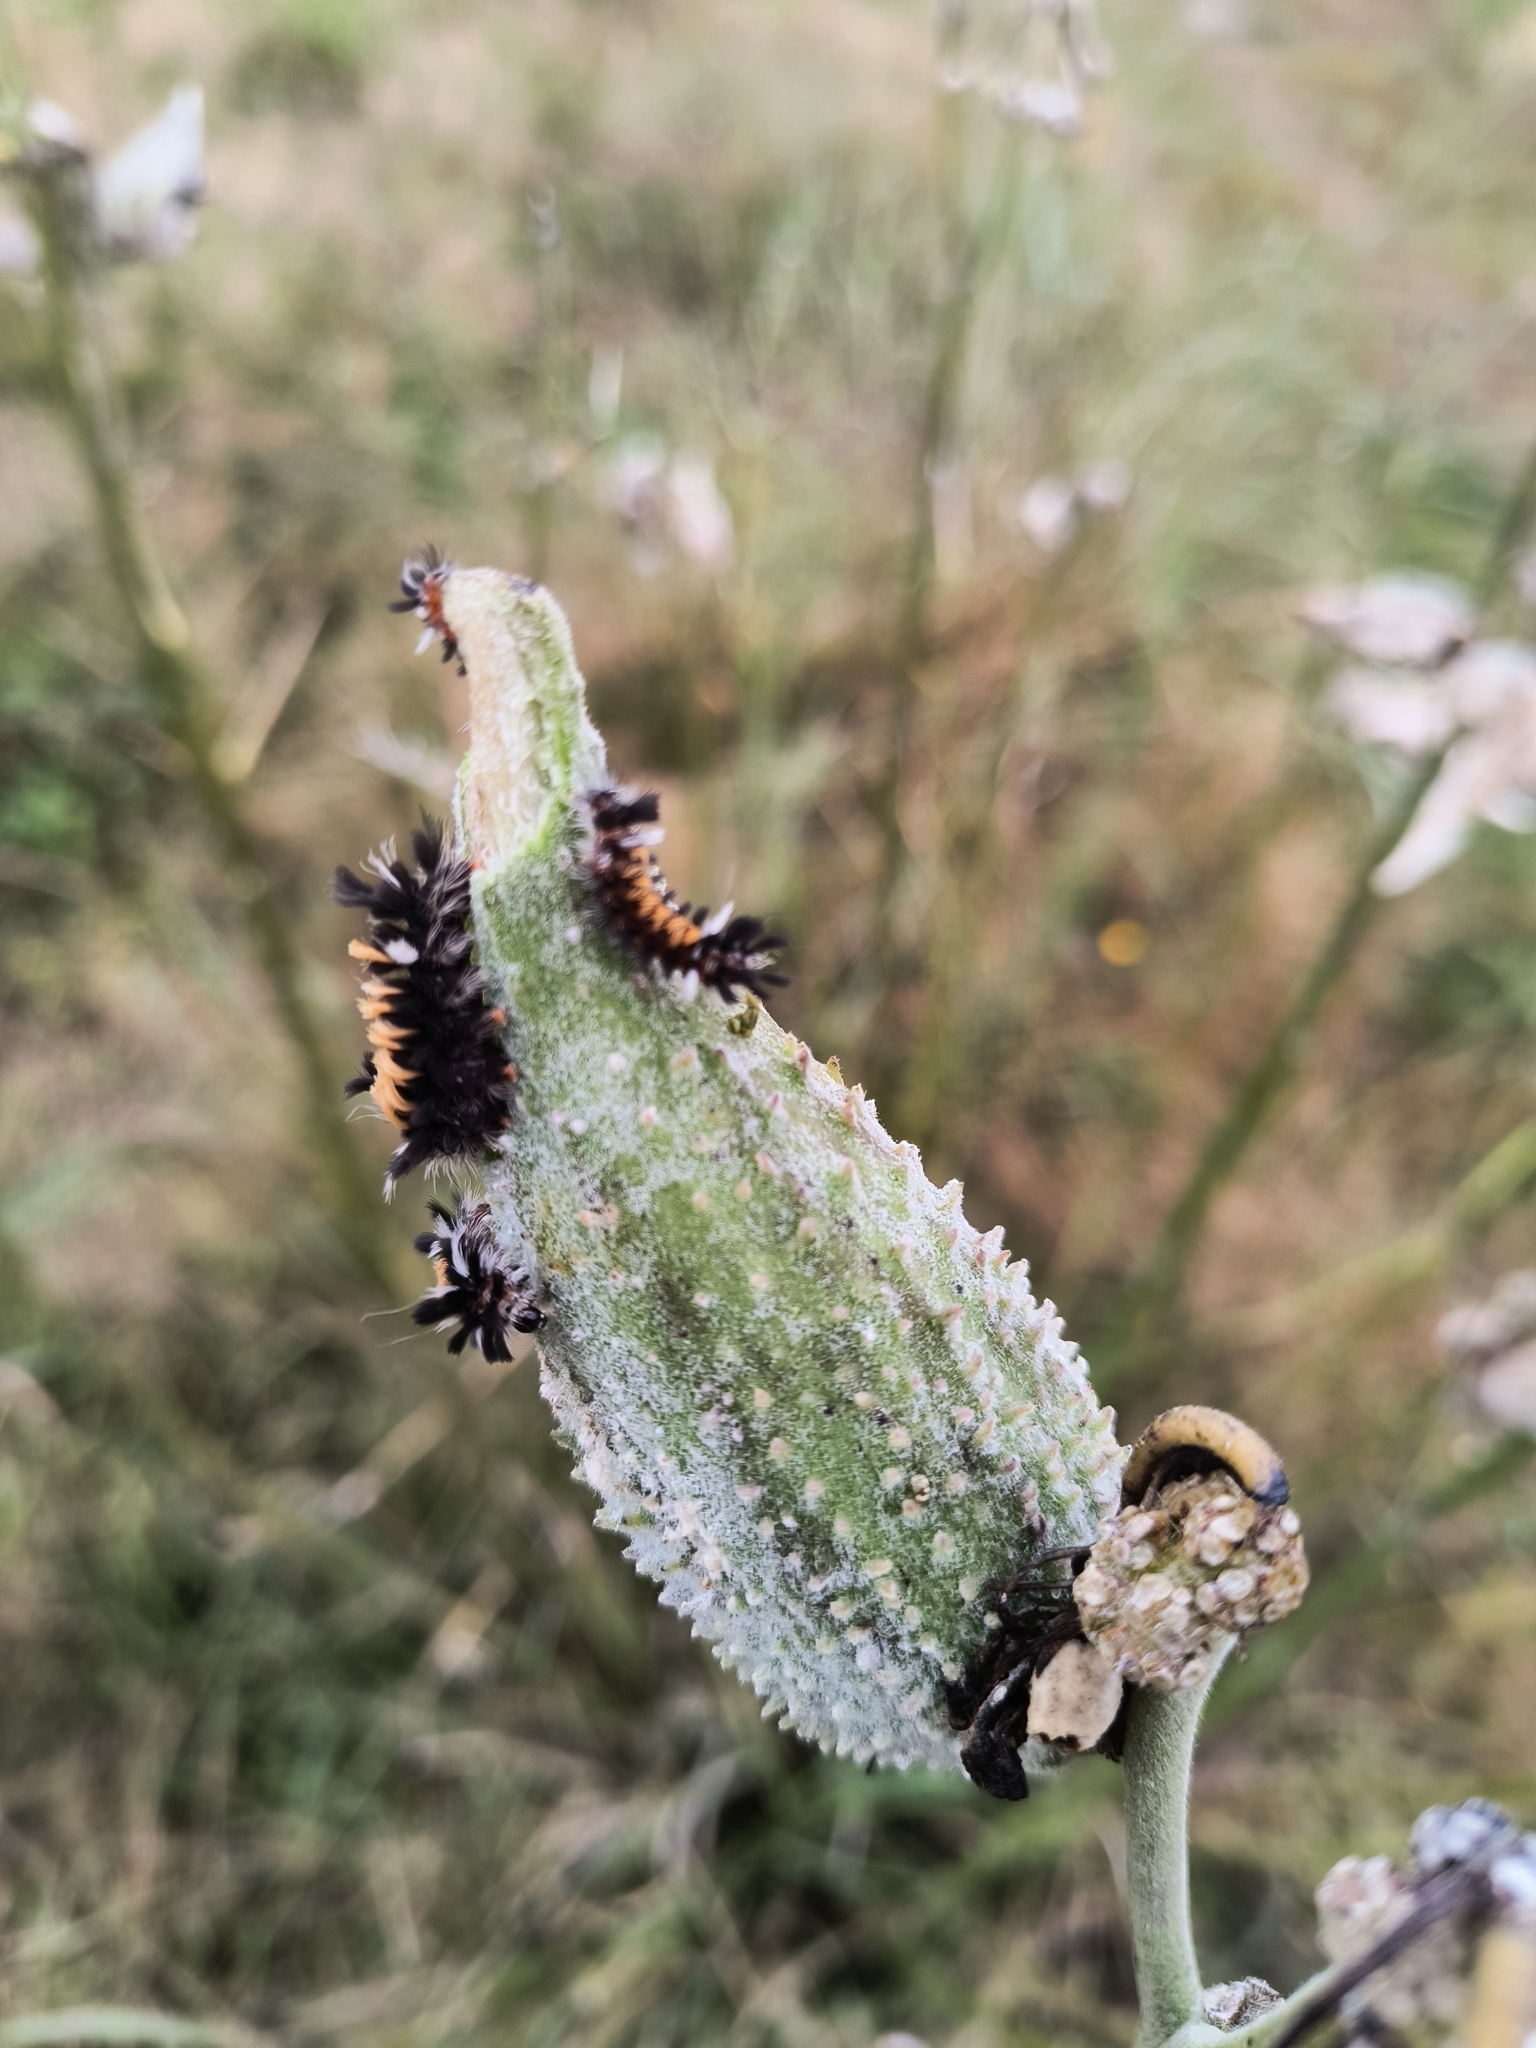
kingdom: Animalia
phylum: Arthropoda
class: Insecta
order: Lepidoptera
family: Erebidae
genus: Euchaetes
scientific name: Euchaetes egle
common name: Milkweed tussock moth
